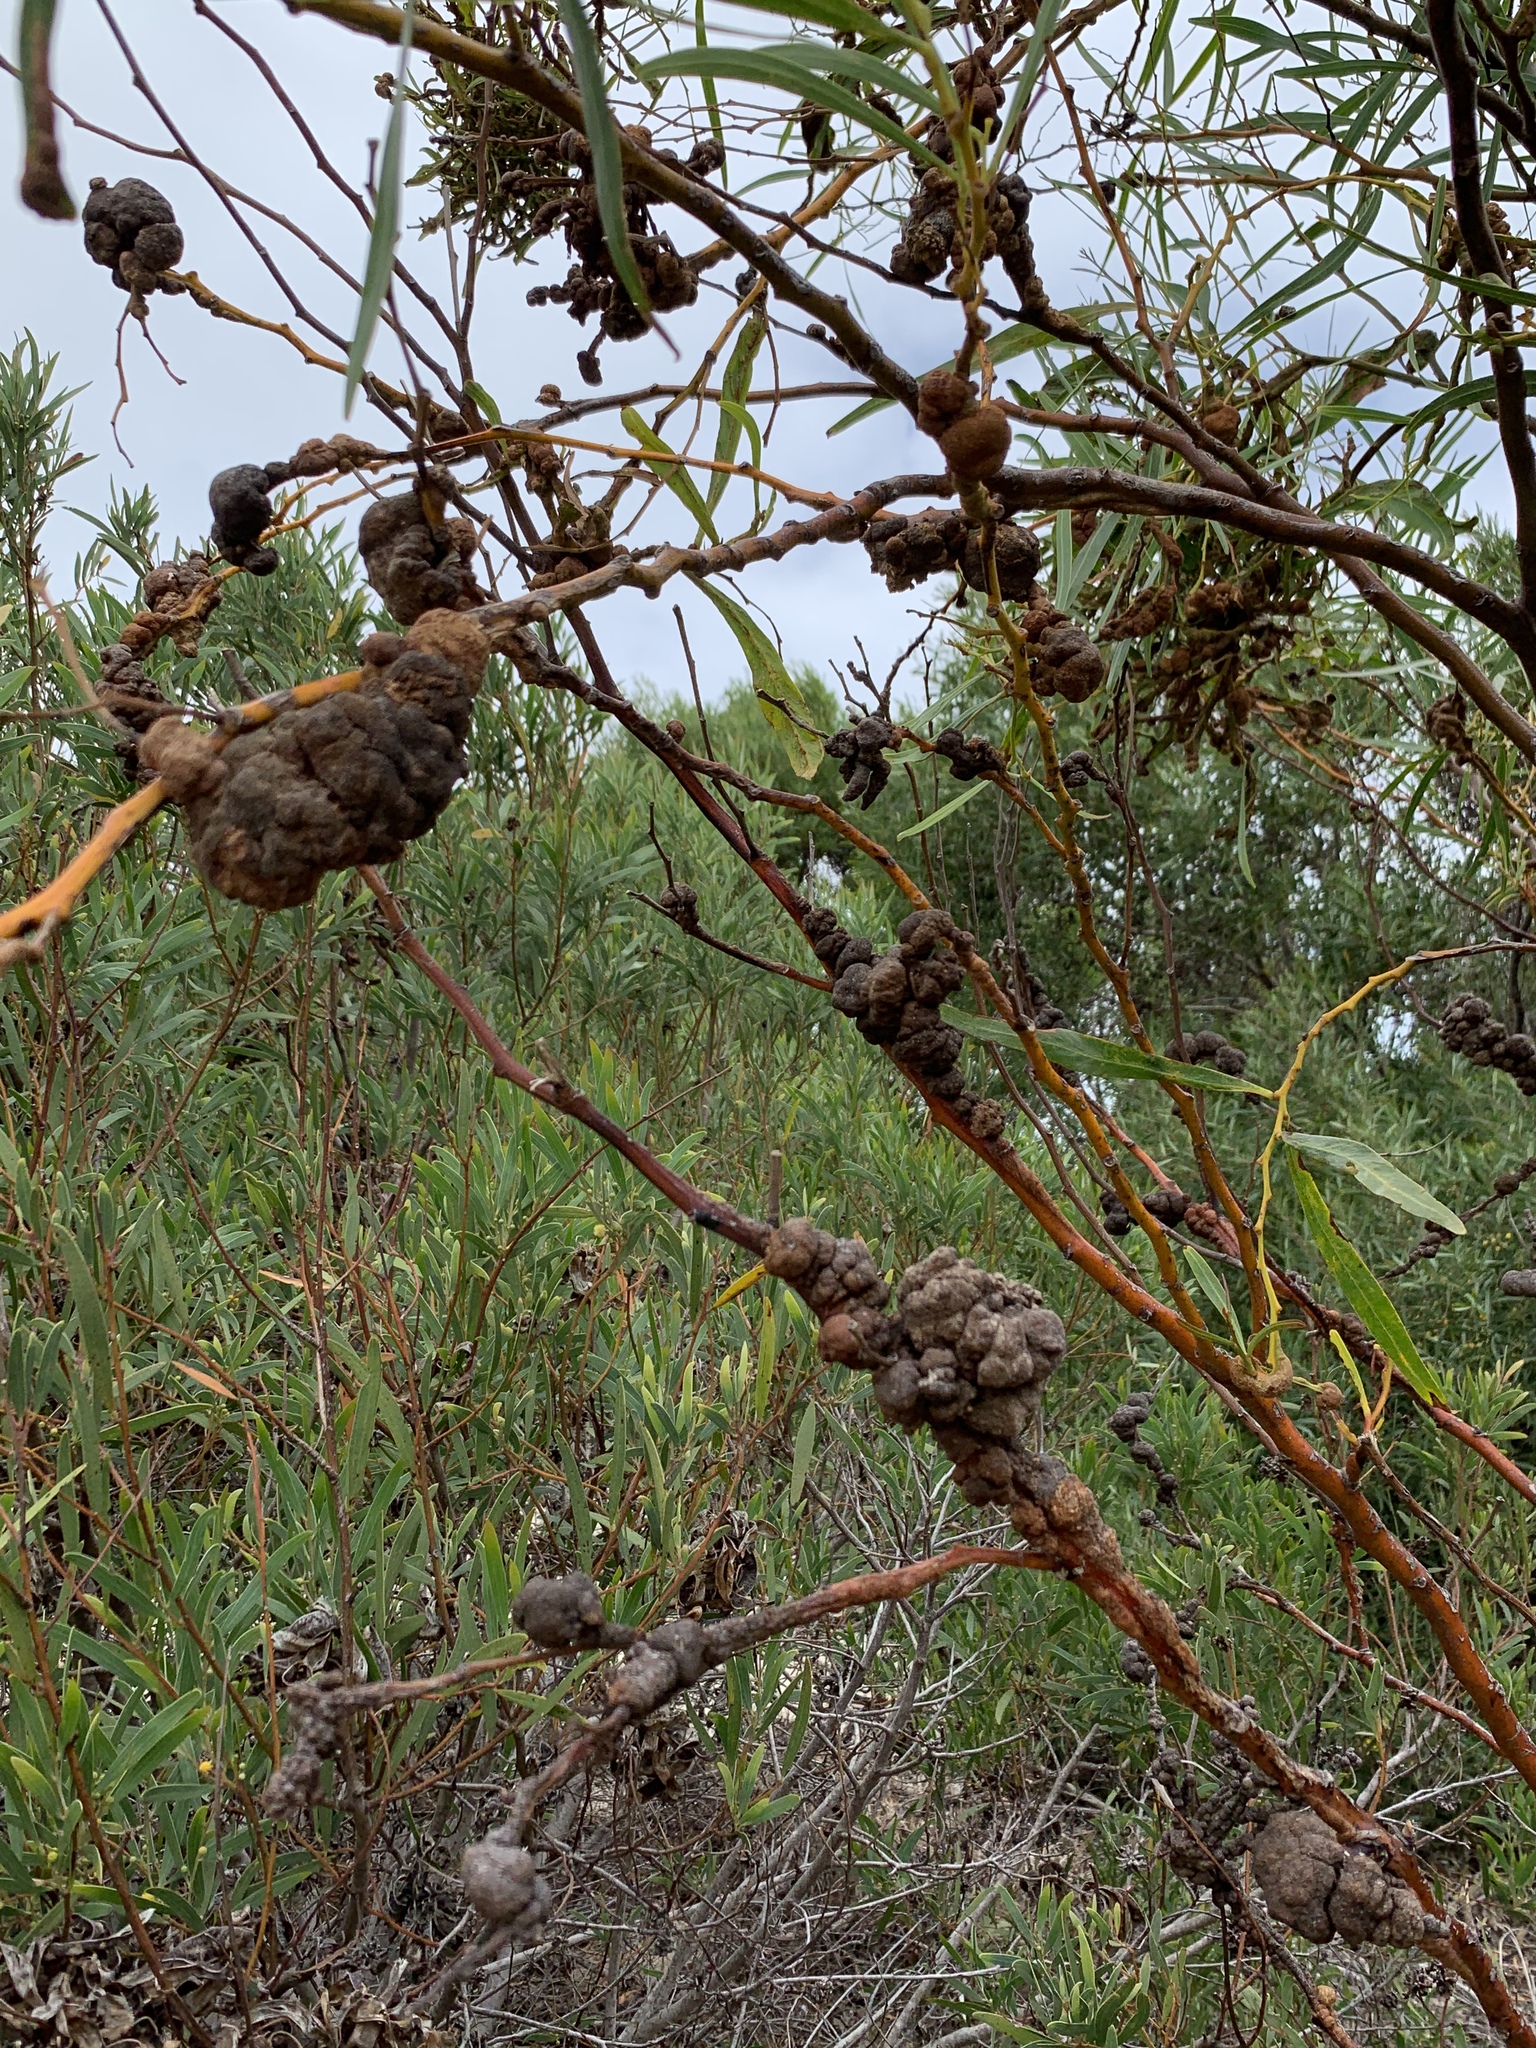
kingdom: Fungi
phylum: Basidiomycota
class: Pucciniomycetes
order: Pucciniales
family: Uromycladiaceae
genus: Uromycladium
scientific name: Uromycladium morrisii
